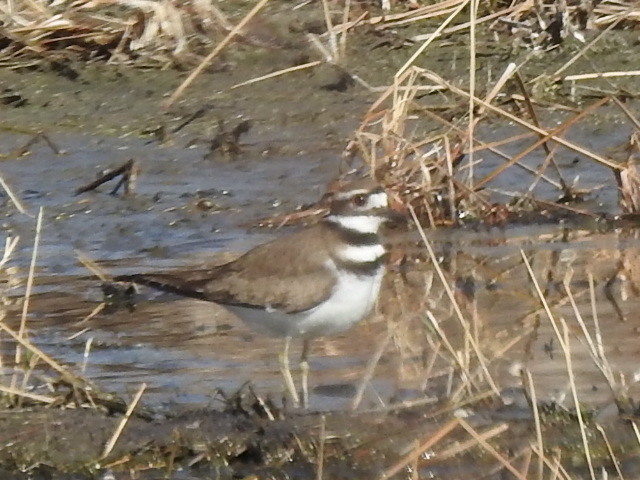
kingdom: Animalia
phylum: Chordata
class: Aves
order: Charadriiformes
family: Charadriidae
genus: Charadrius
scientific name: Charadrius vociferus
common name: Killdeer
